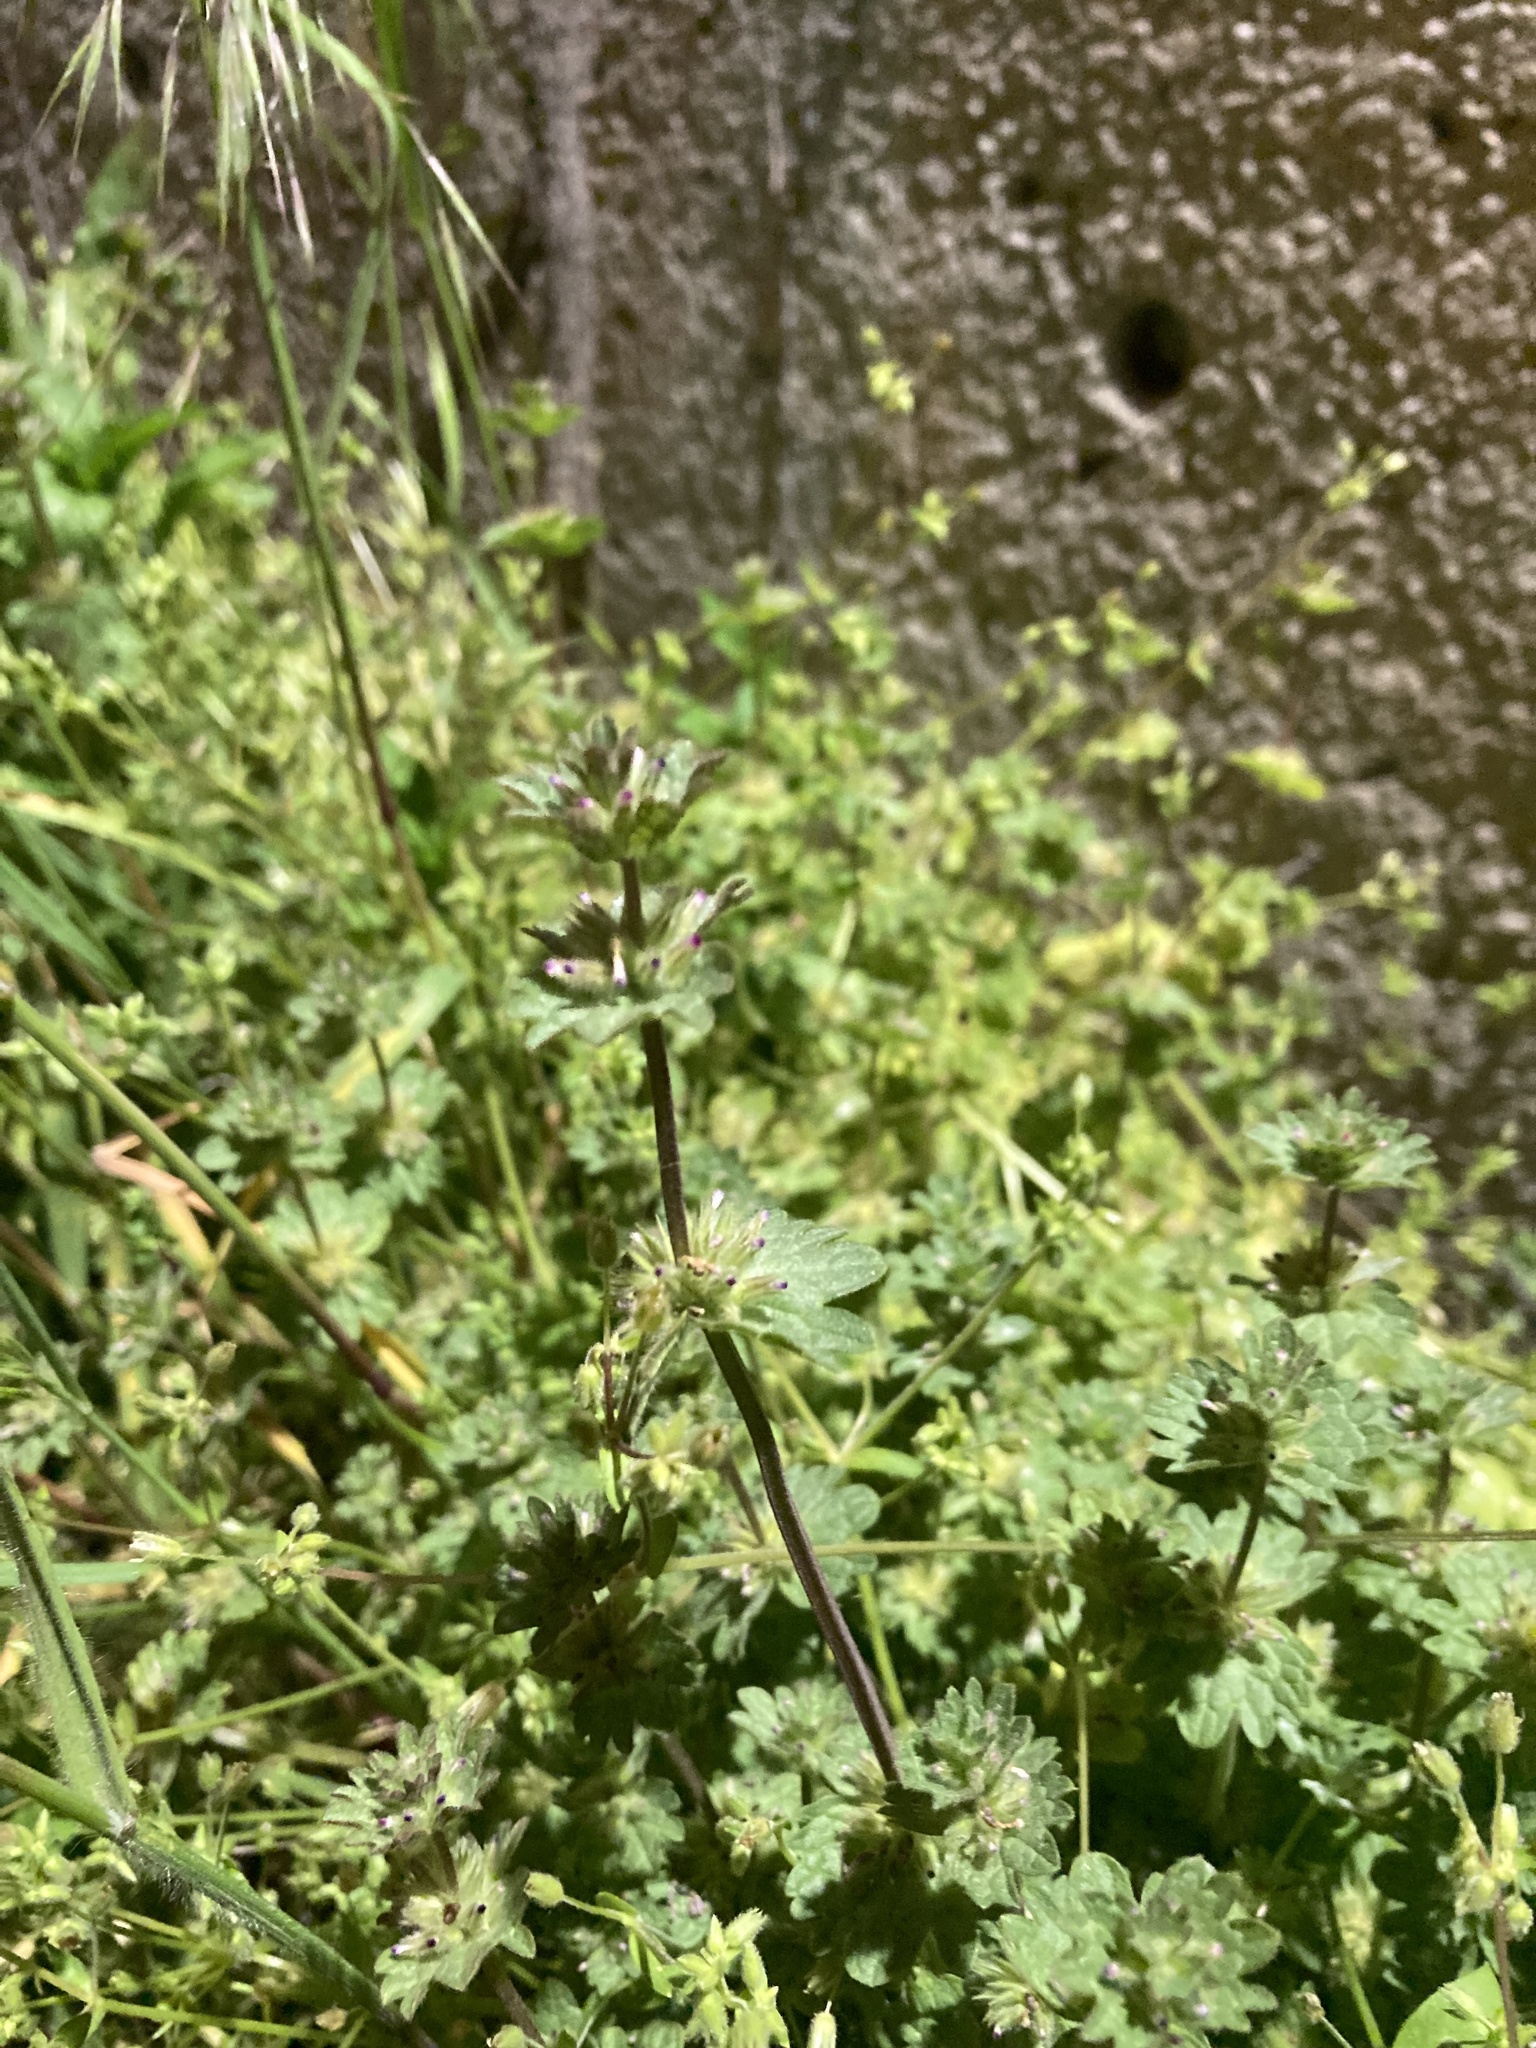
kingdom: Plantae
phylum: Tracheophyta
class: Magnoliopsida
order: Lamiales
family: Lamiaceae
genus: Lamium
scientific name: Lamium amplexicaule
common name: Henbit dead-nettle
